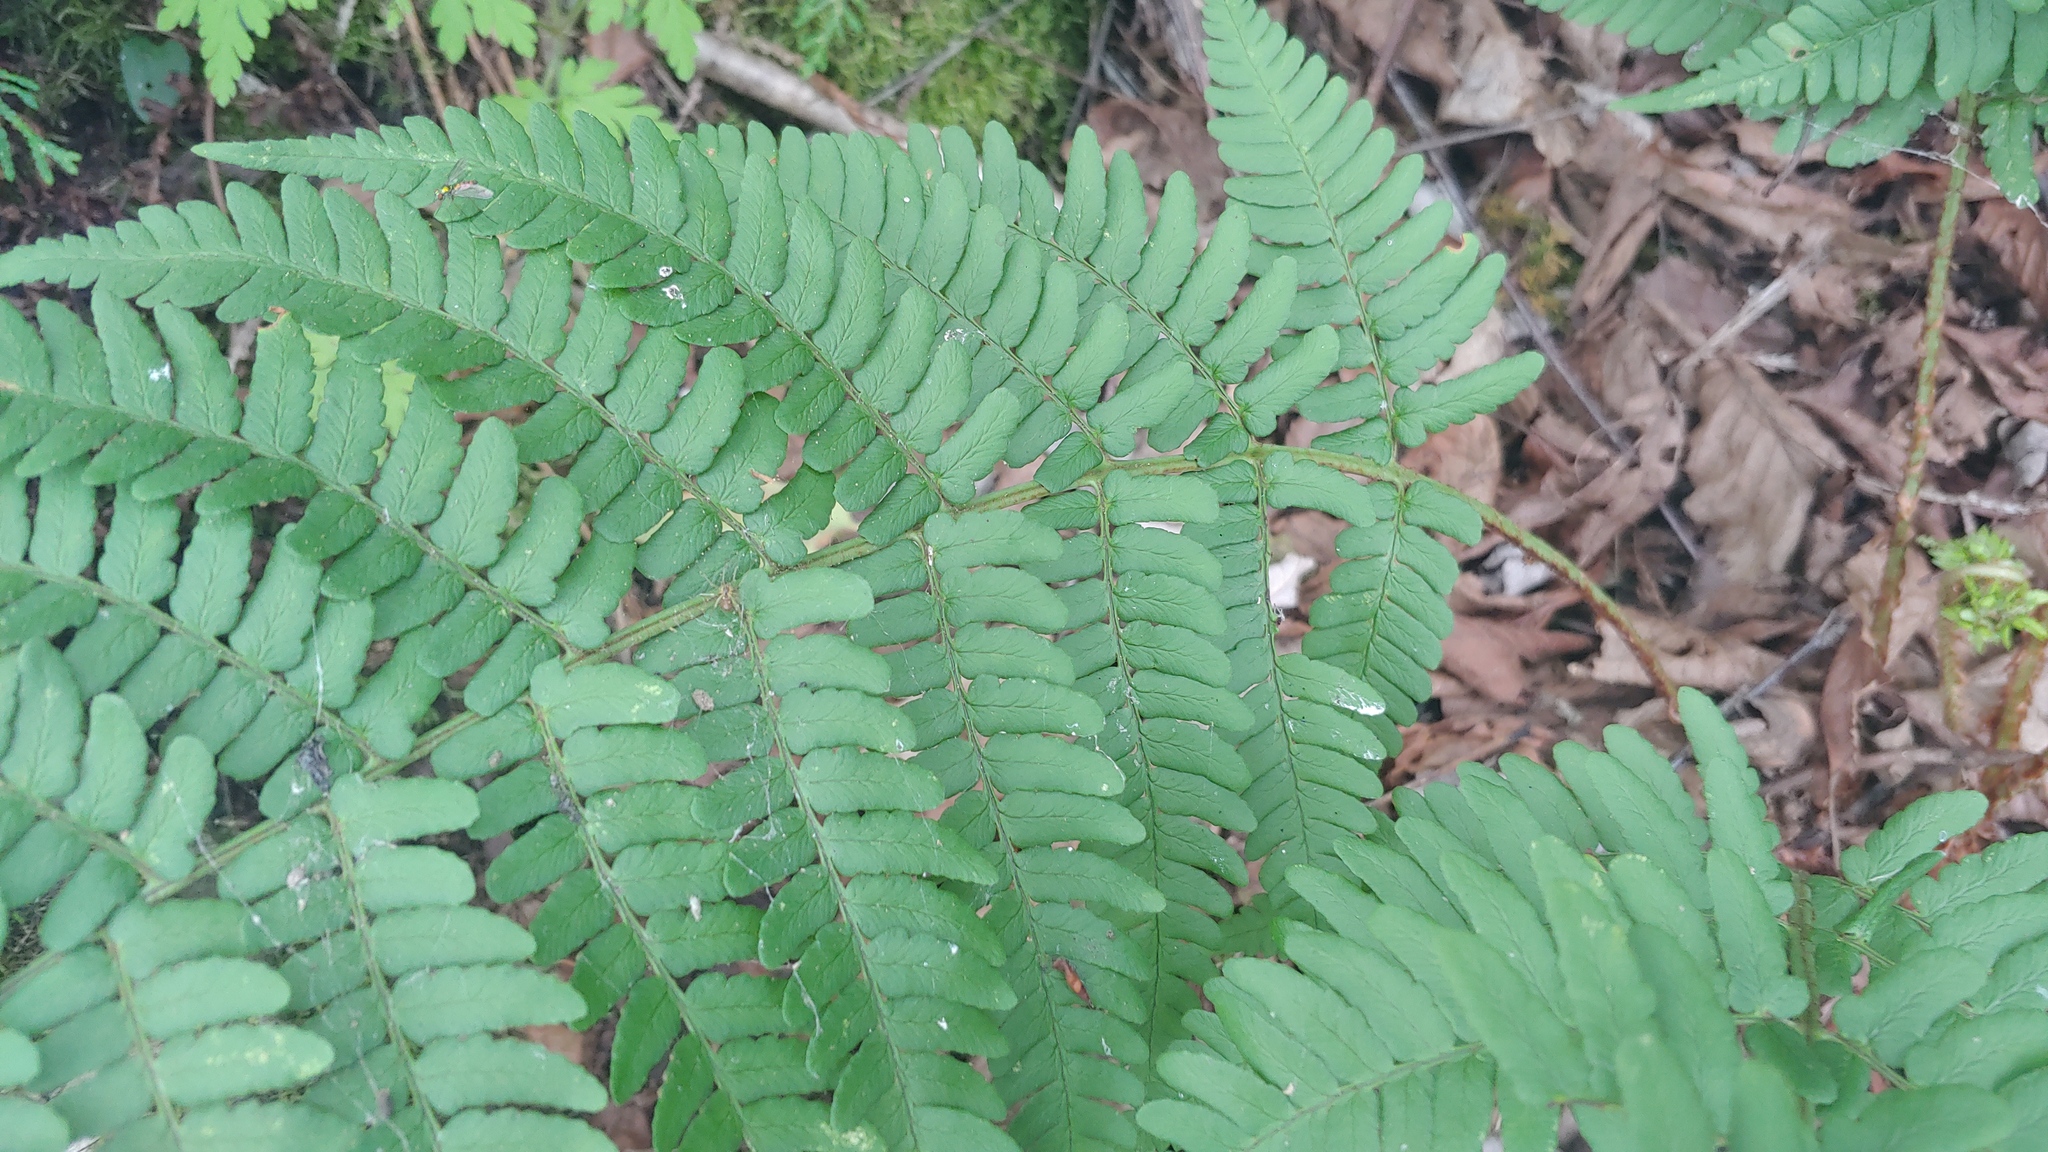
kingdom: Plantae
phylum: Tracheophyta
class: Polypodiopsida
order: Polypodiales
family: Dryopteridaceae
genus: Dryopteris
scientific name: Dryopteris marginalis
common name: Marginal wood fern
